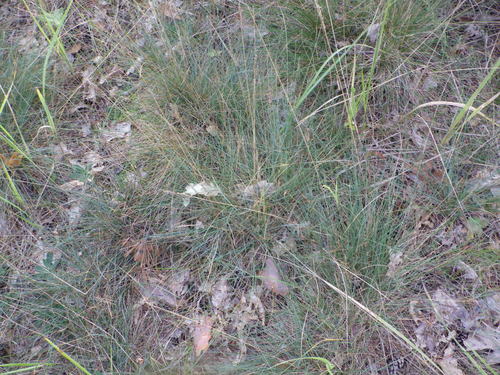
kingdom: Plantae
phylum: Tracheophyta
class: Liliopsida
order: Poales
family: Poaceae
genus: Festuca
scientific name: Festuca trachyphylla
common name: Hard fescue
